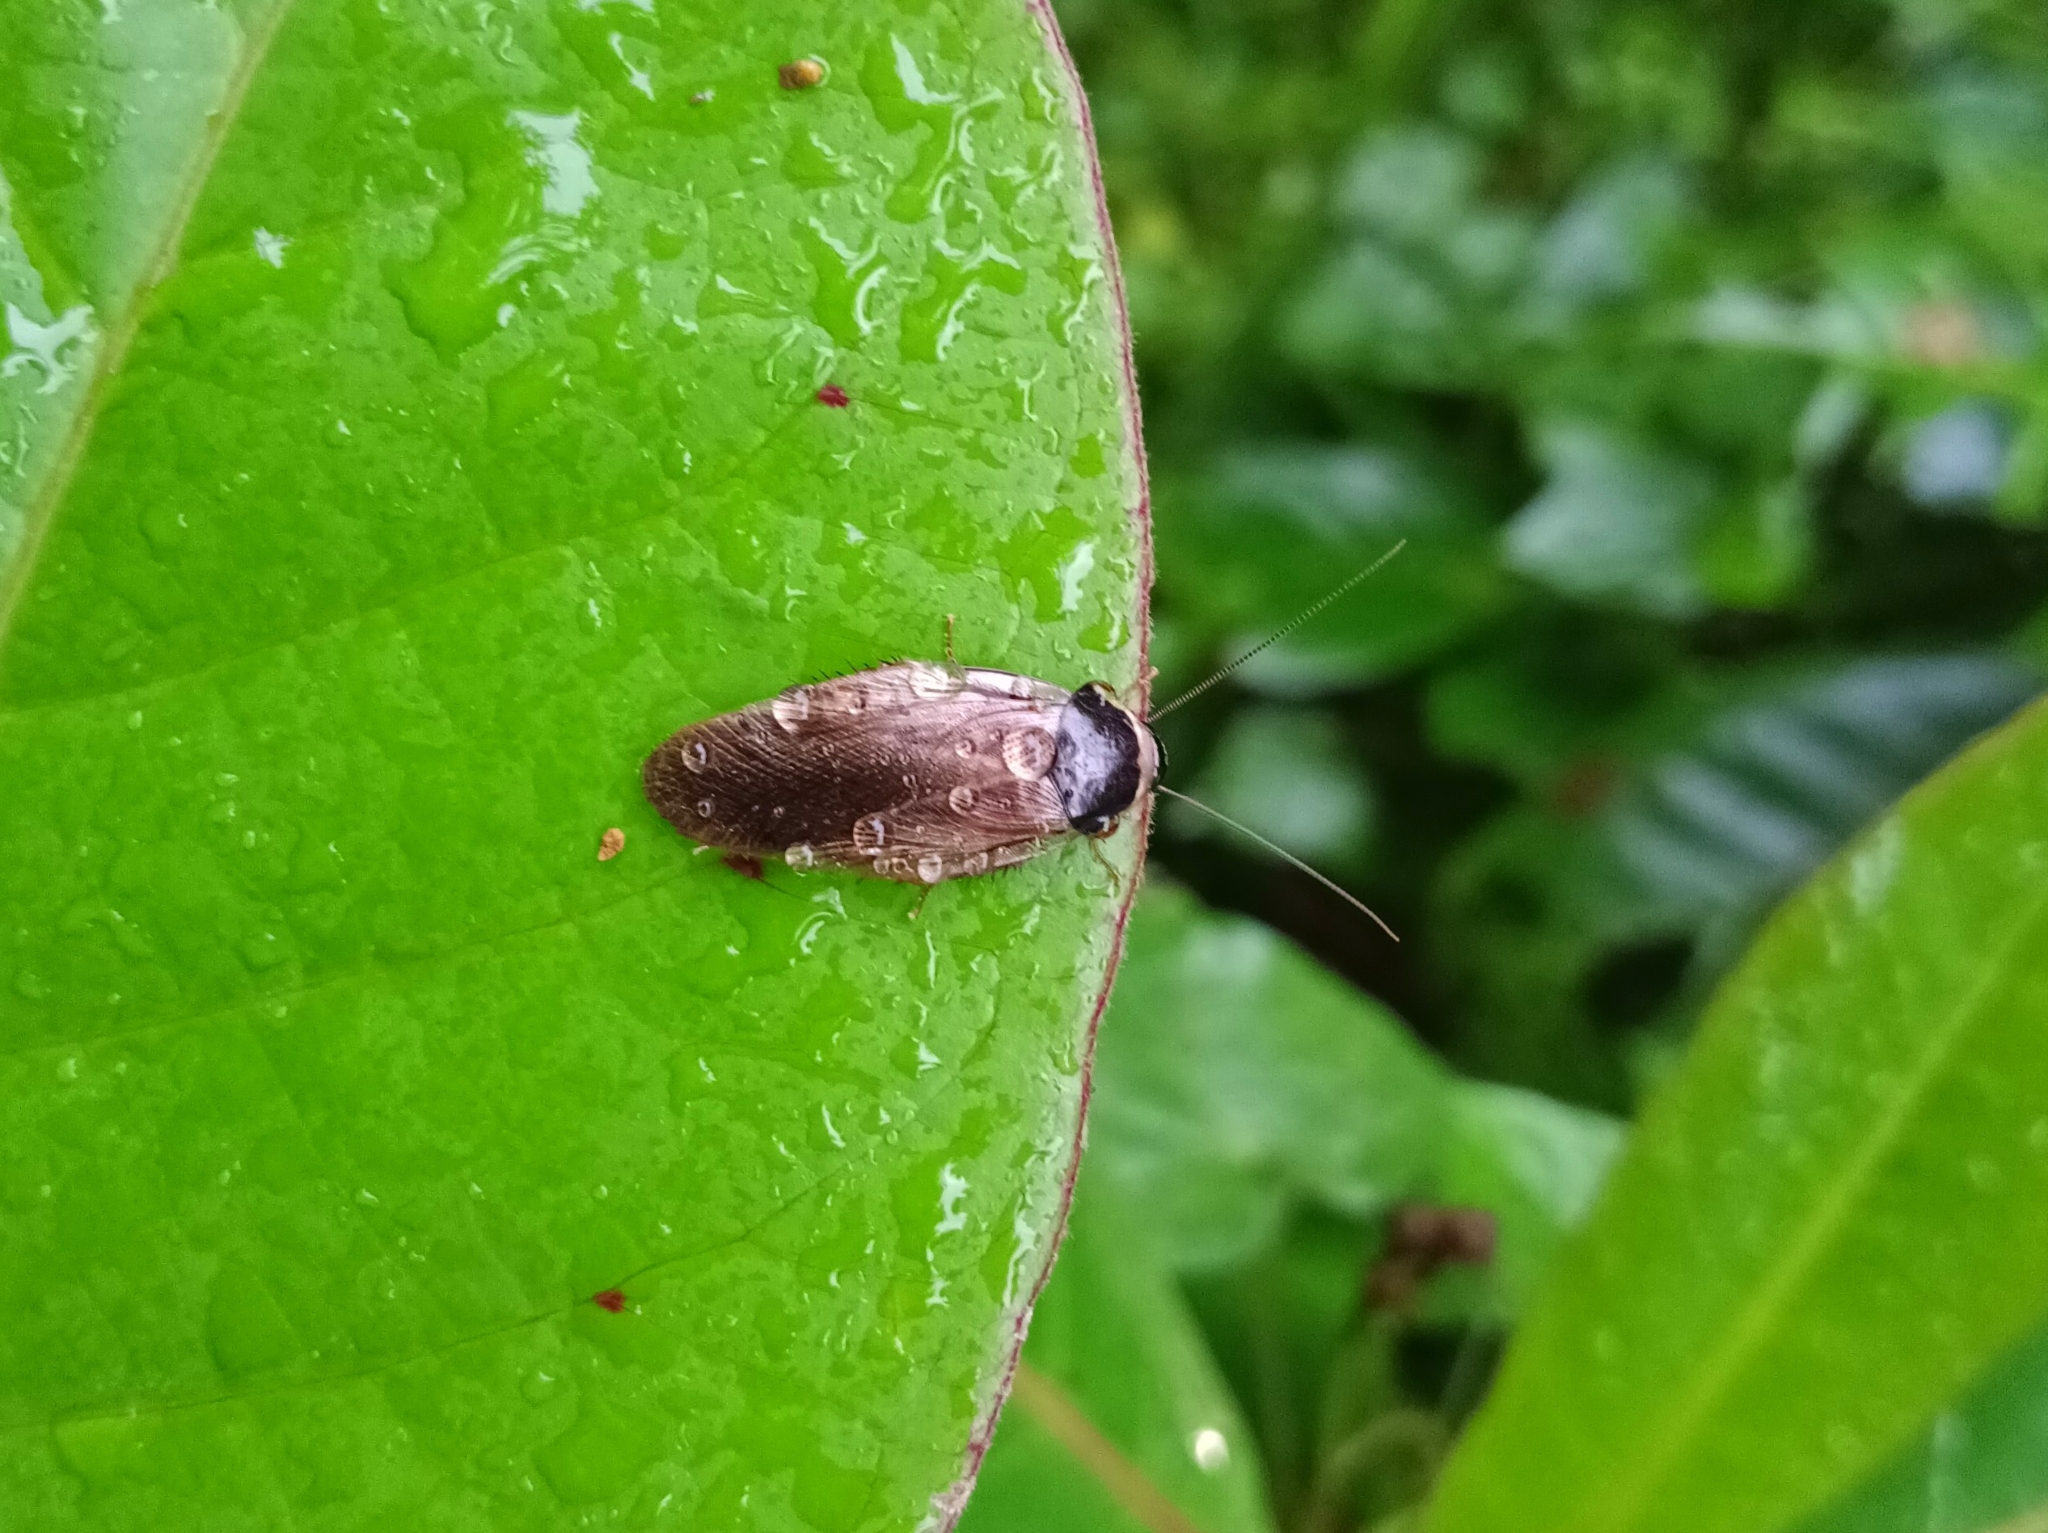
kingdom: Animalia
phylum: Arthropoda
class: Insecta
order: Blattodea
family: Blaberidae
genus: Pycnoscelus
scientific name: Pycnoscelus indicus
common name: Burrowing cockroach
